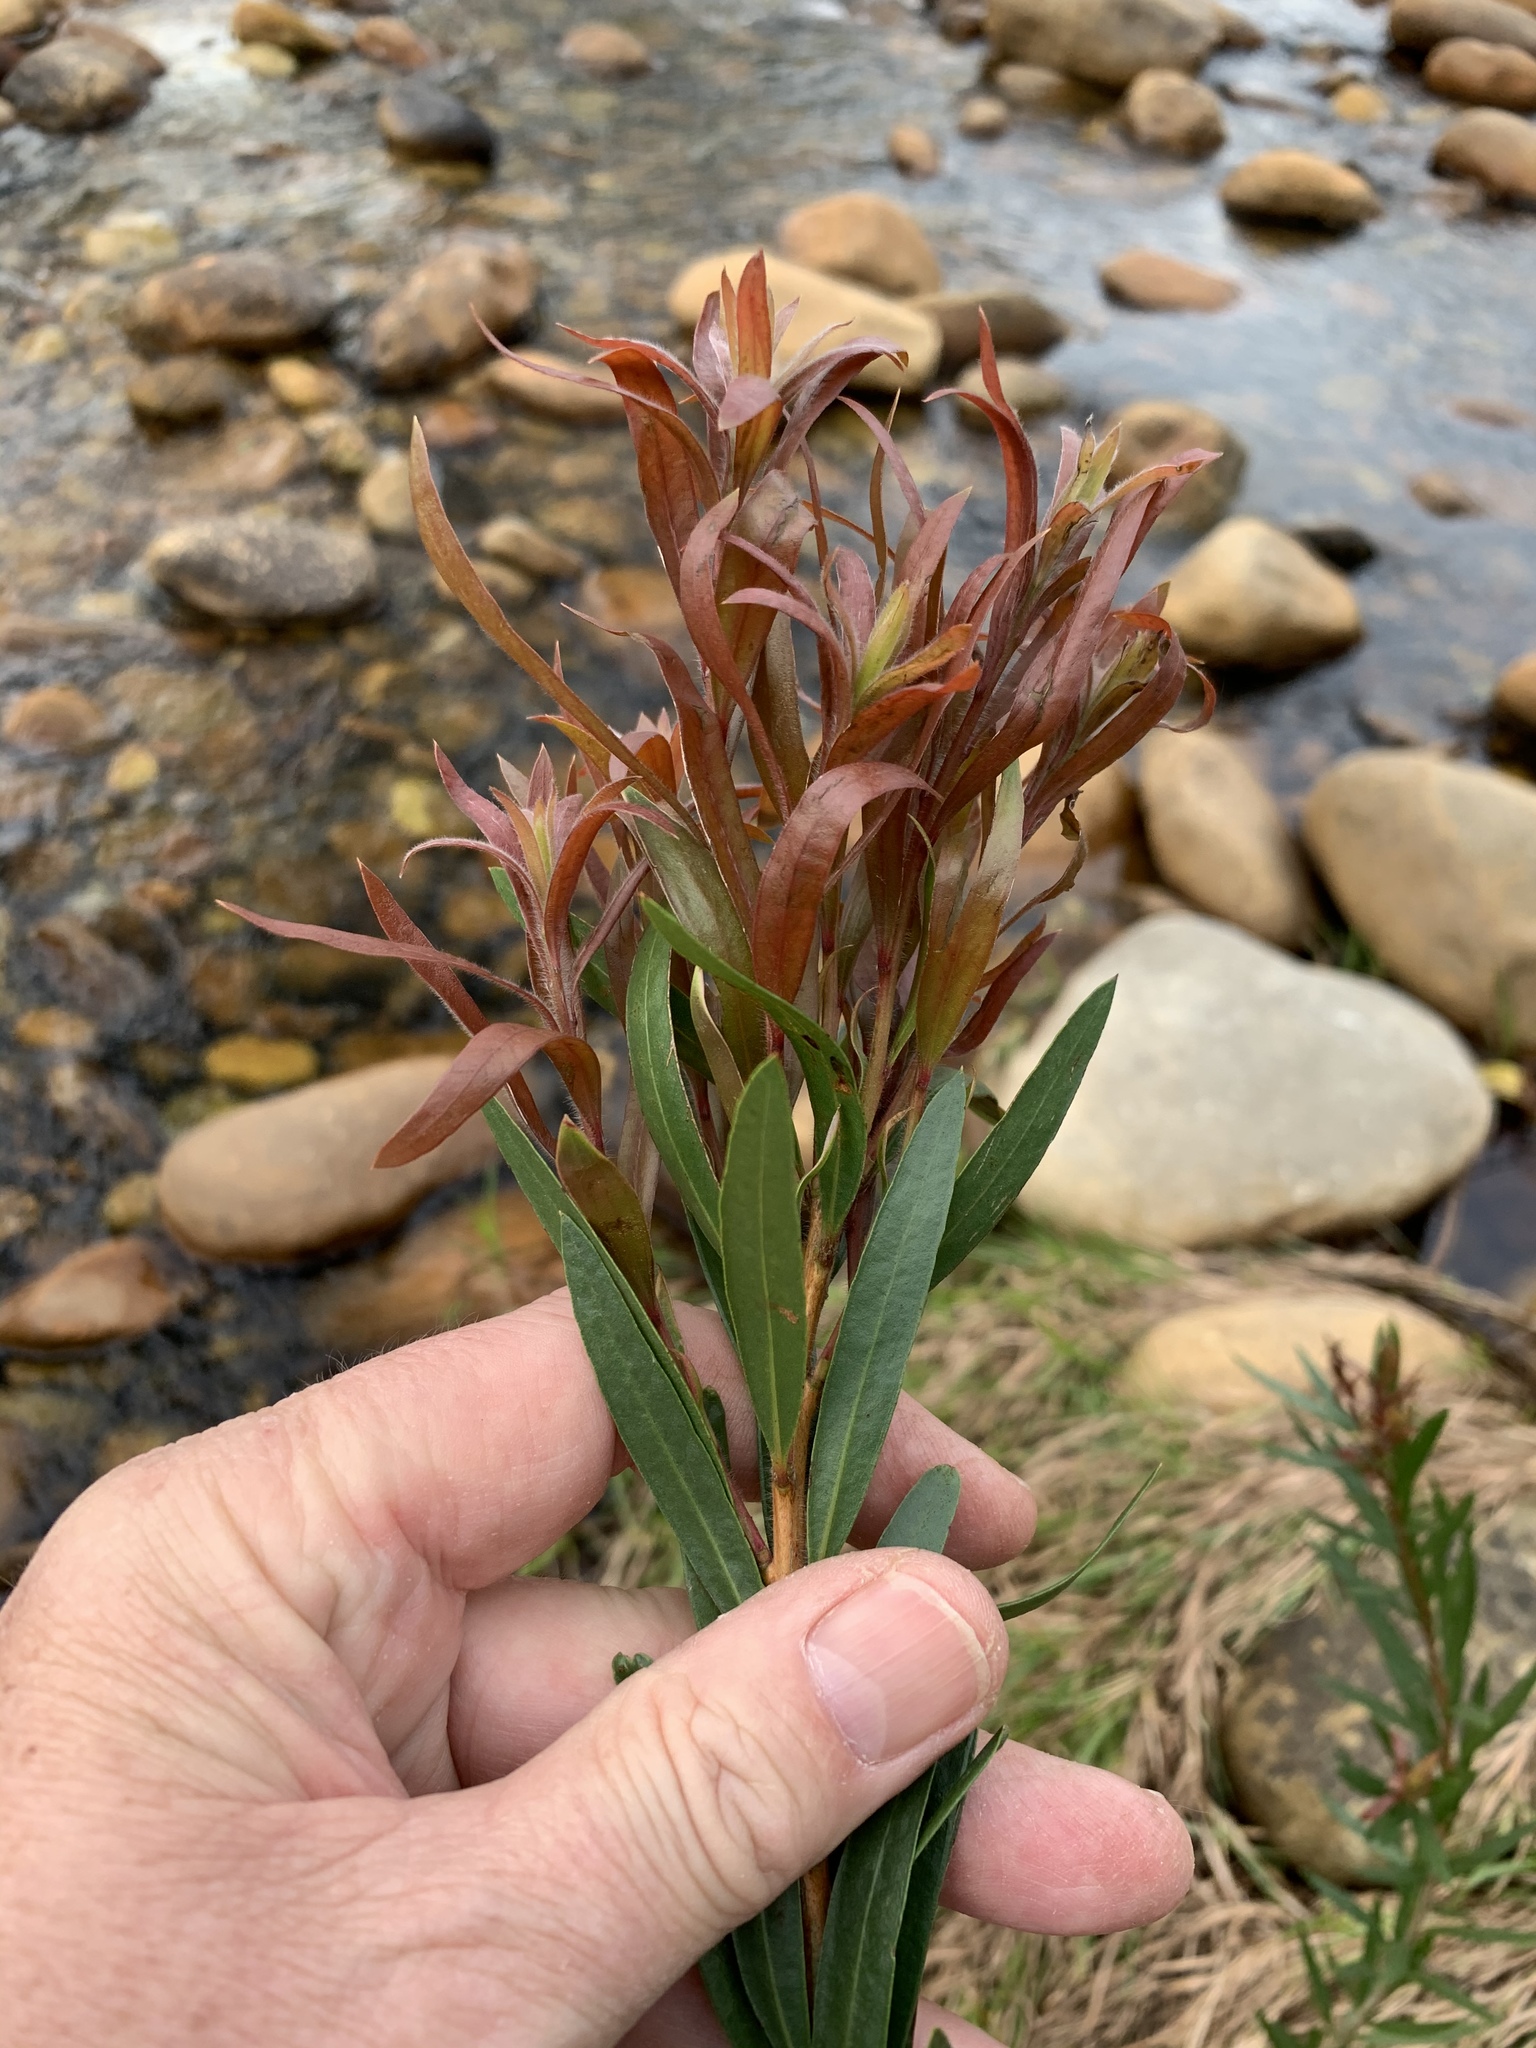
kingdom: Plantae
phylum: Tracheophyta
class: Magnoliopsida
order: Myrtales
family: Myrtaceae
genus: Callistemon
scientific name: Callistemon viminalis
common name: Drooping bottlebrush
